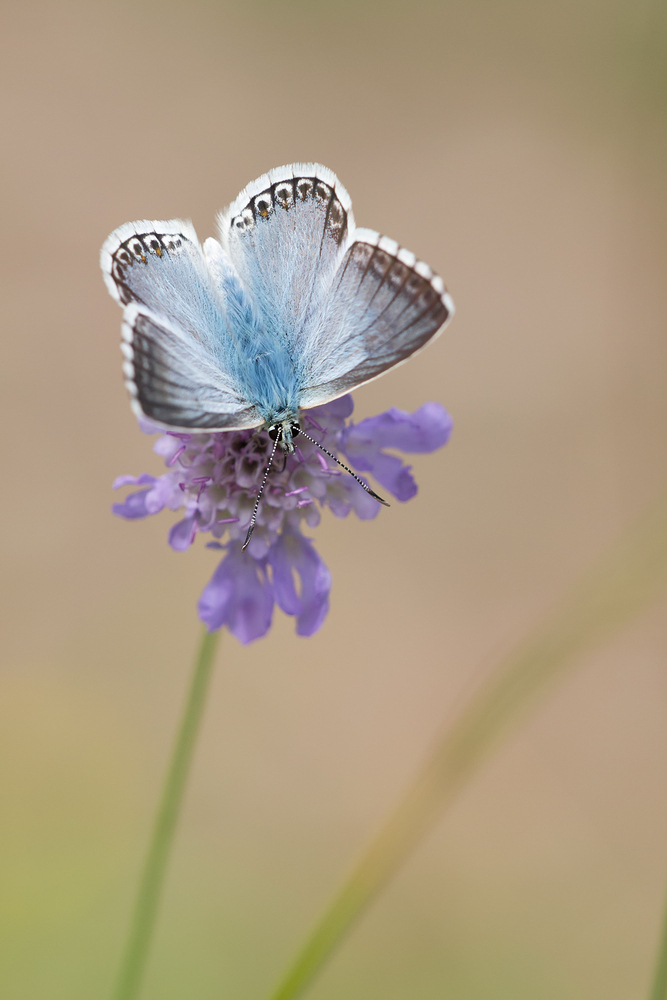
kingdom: Animalia
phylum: Arthropoda
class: Insecta
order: Lepidoptera
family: Lycaenidae
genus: Lysandra
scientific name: Lysandra coridon
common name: Chalkhill blue
